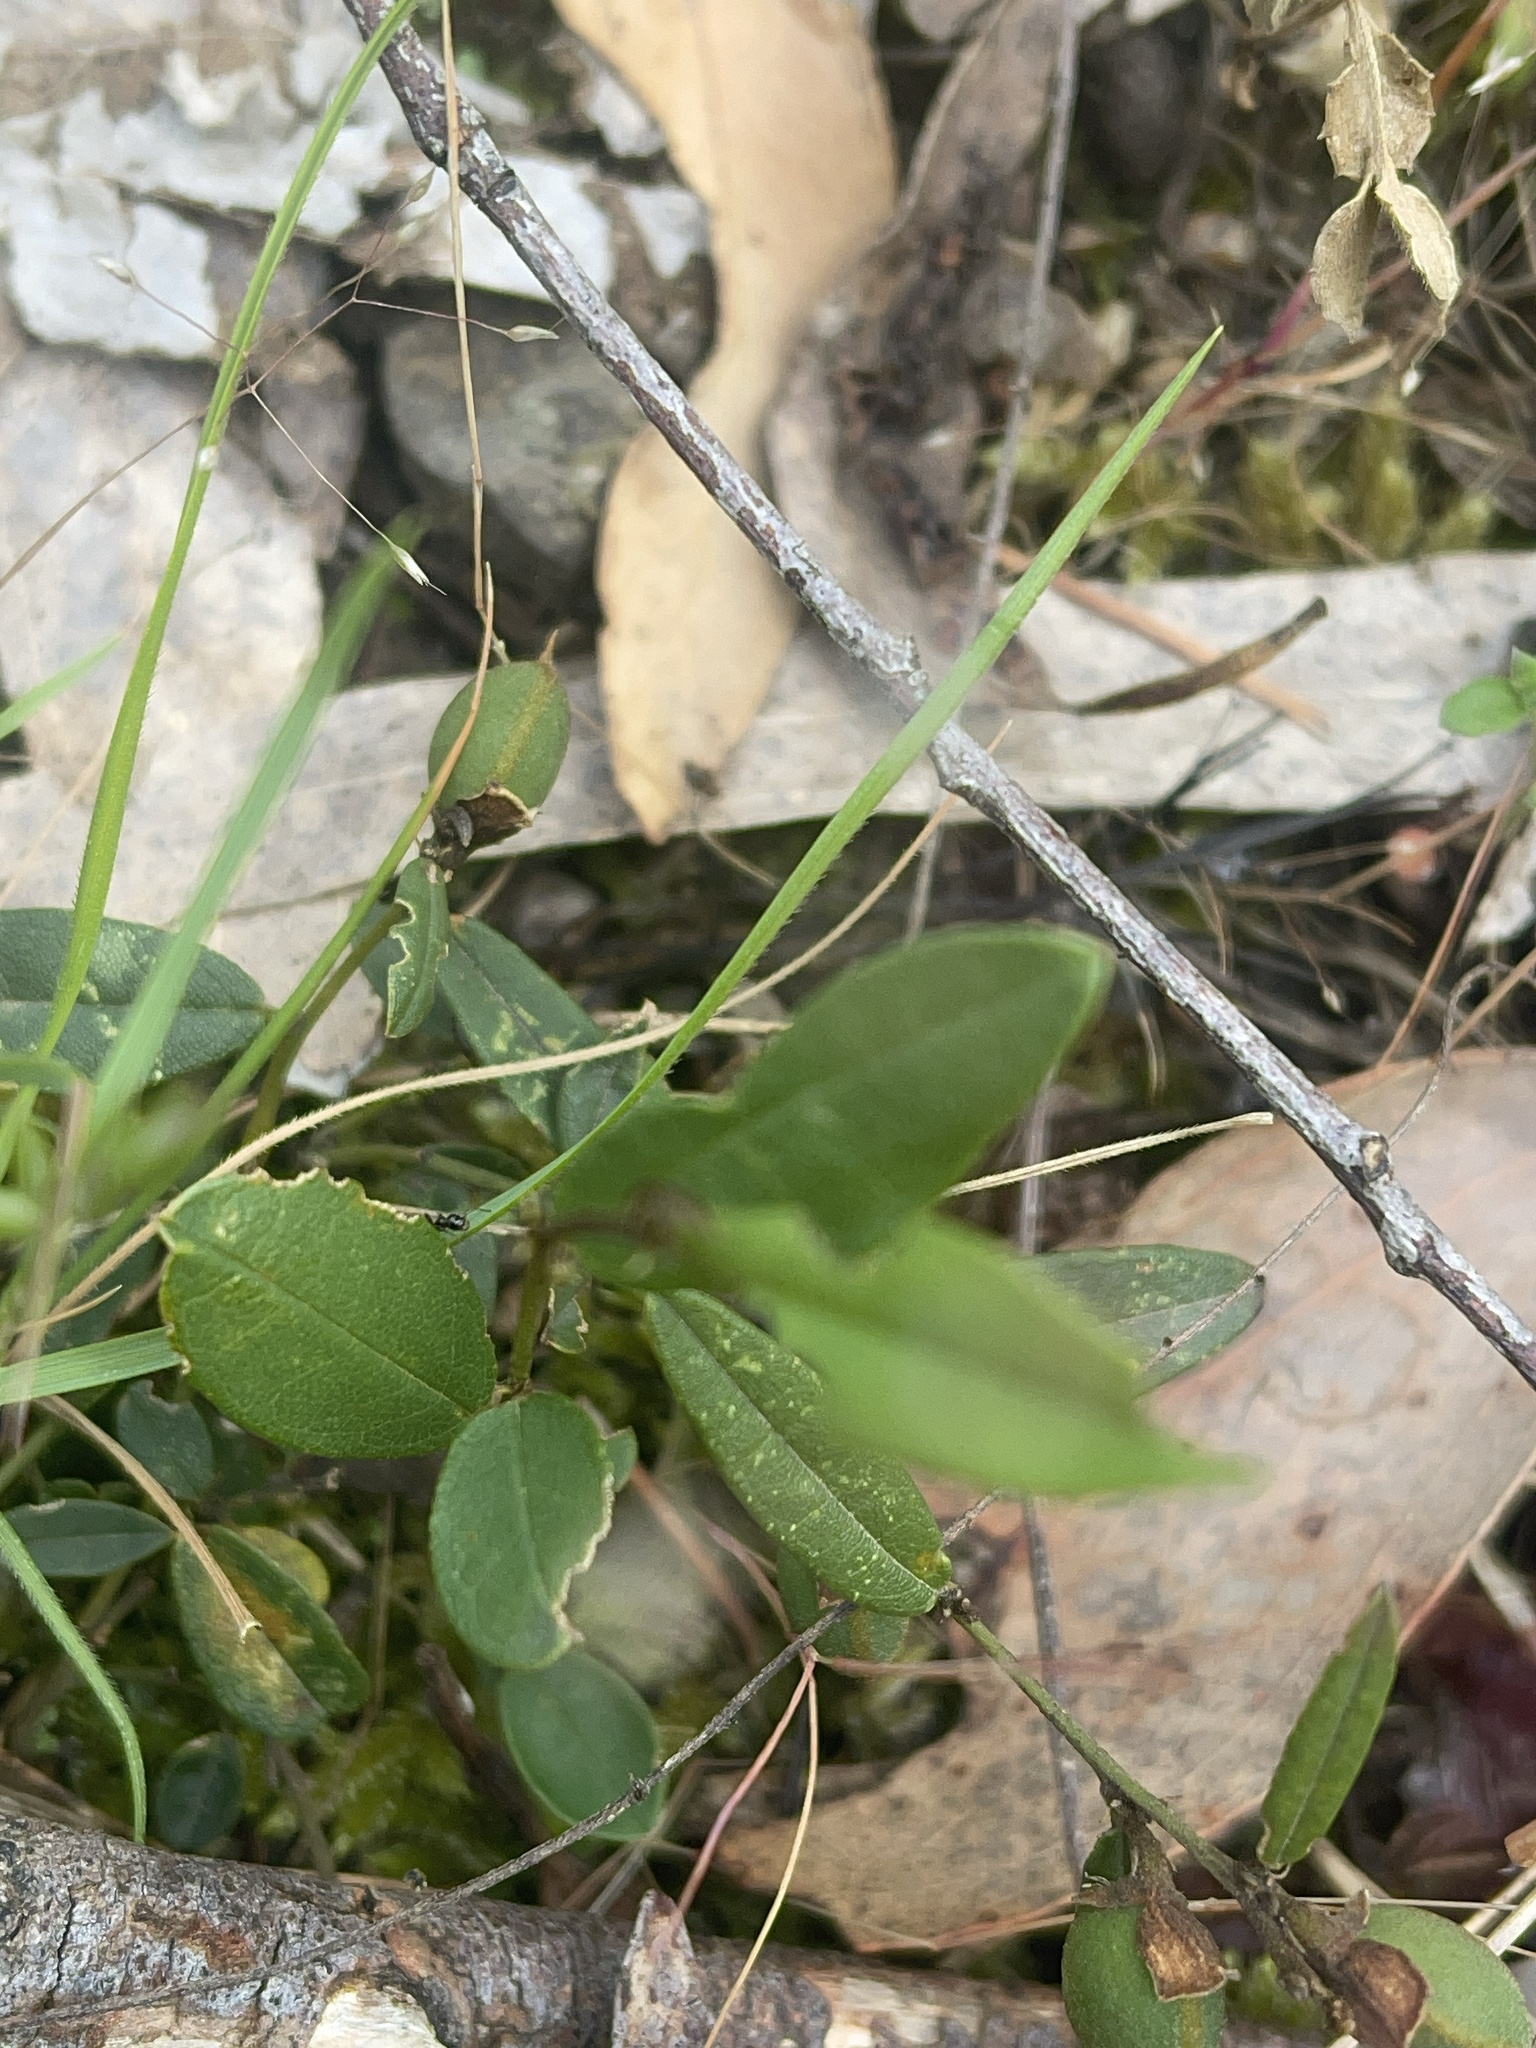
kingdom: Plantae
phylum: Tracheophyta
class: Magnoliopsida
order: Fabales
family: Fabaceae
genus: Hovea
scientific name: Hovea heterophylla
